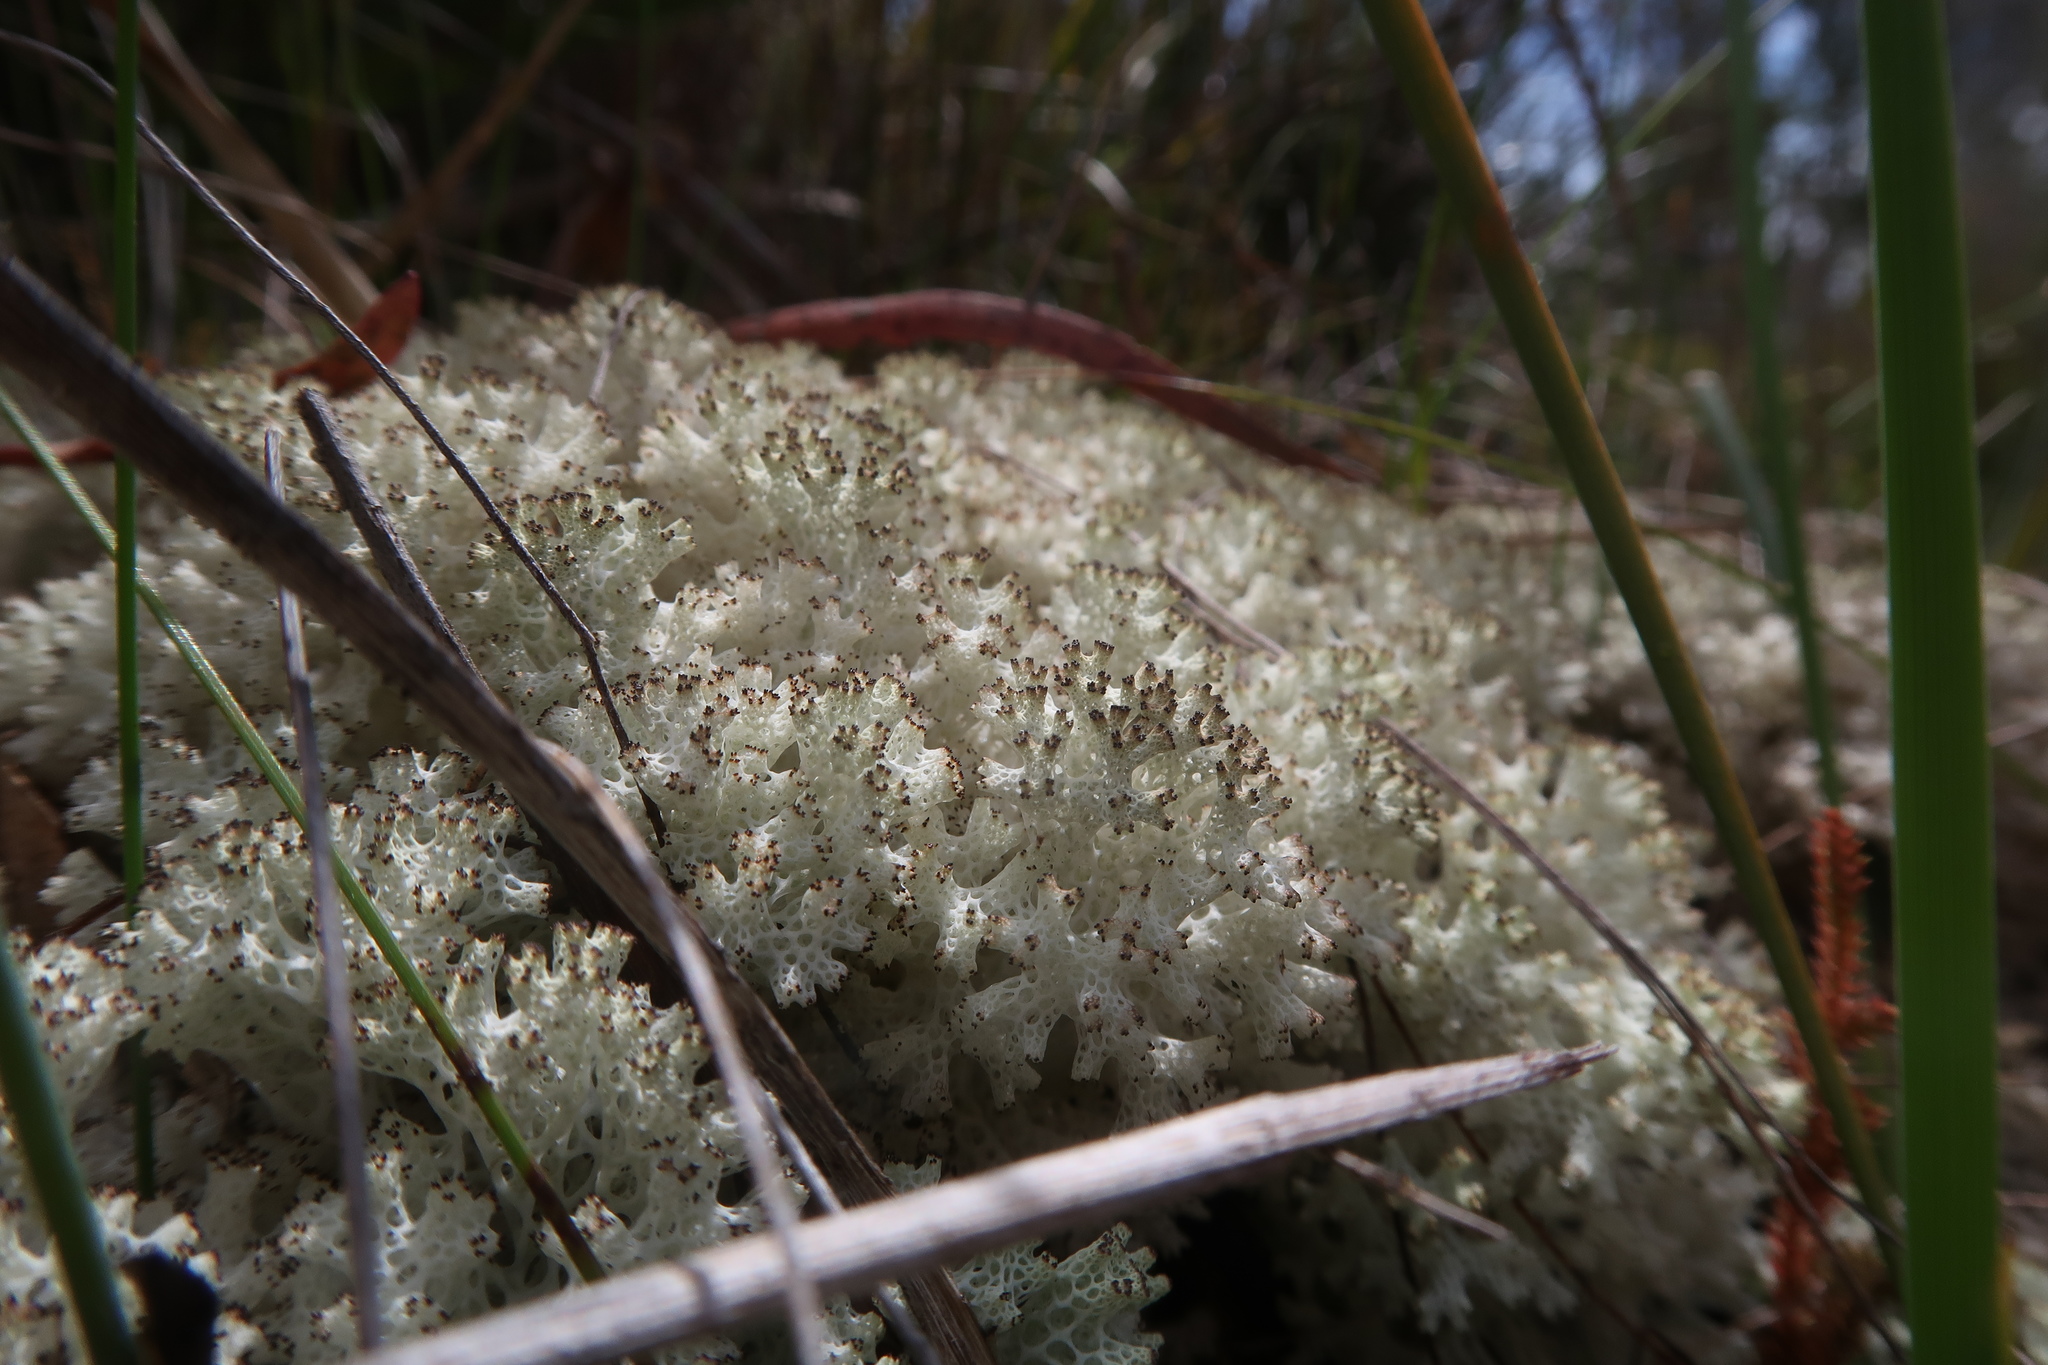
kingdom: Fungi
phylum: Ascomycota
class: Lecanoromycetes
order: Lecanorales
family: Cladoniaceae
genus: Pulchrocladia
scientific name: Pulchrocladia retipora
